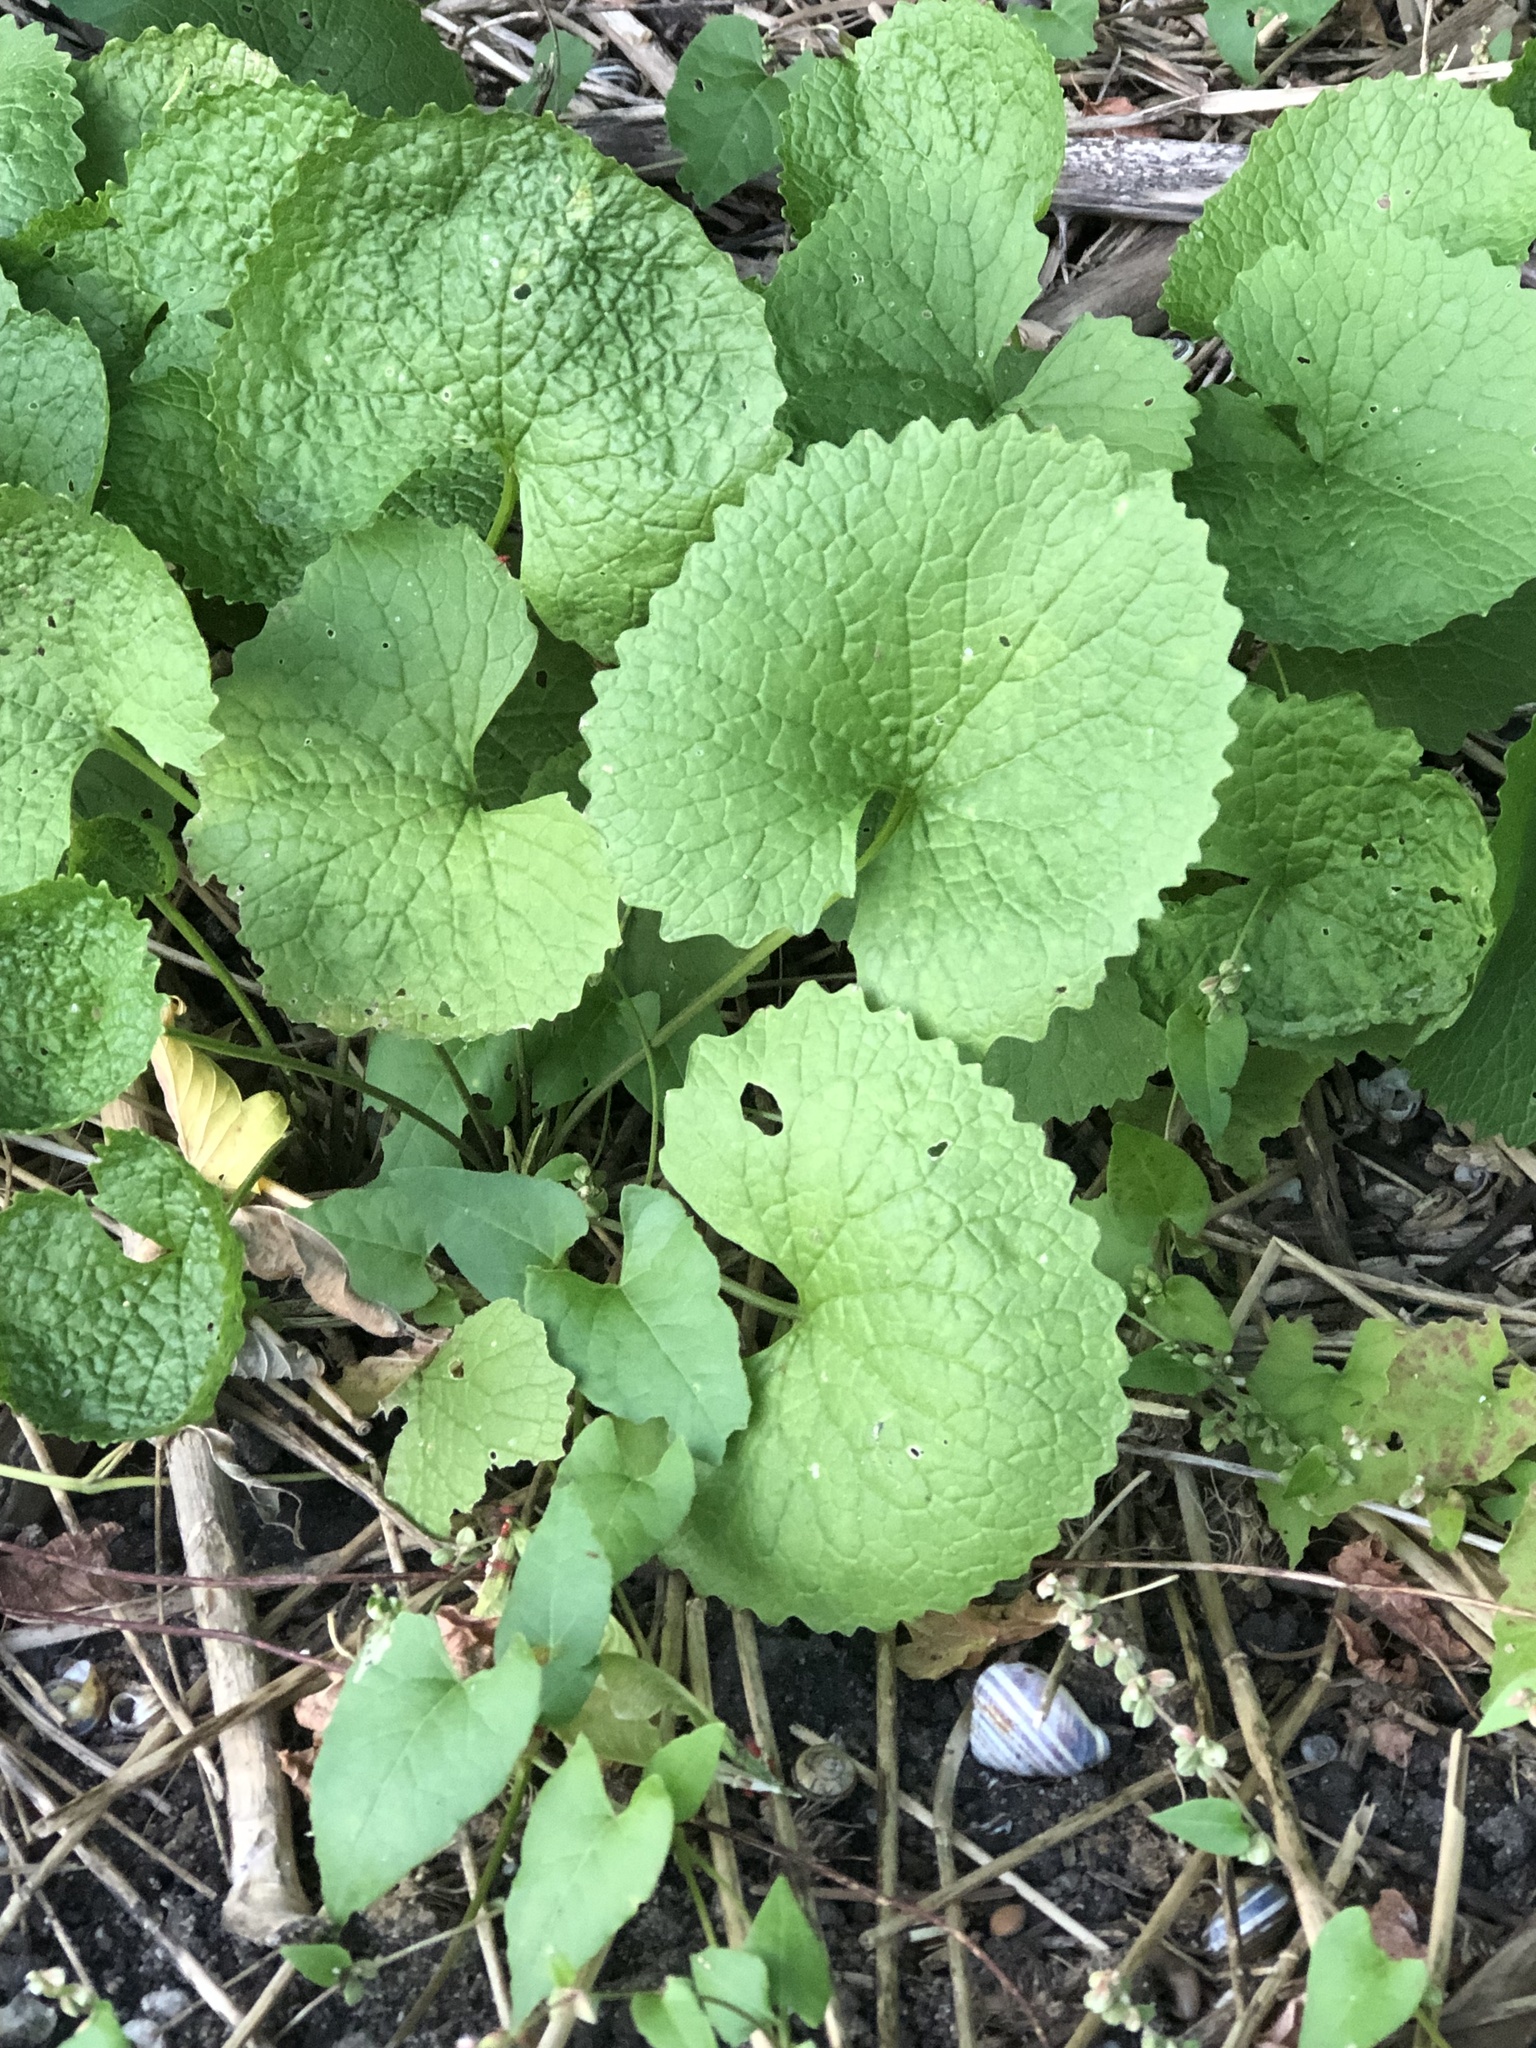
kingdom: Plantae
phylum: Tracheophyta
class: Magnoliopsida
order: Brassicales
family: Brassicaceae
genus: Alliaria
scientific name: Alliaria petiolata
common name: Garlic mustard
